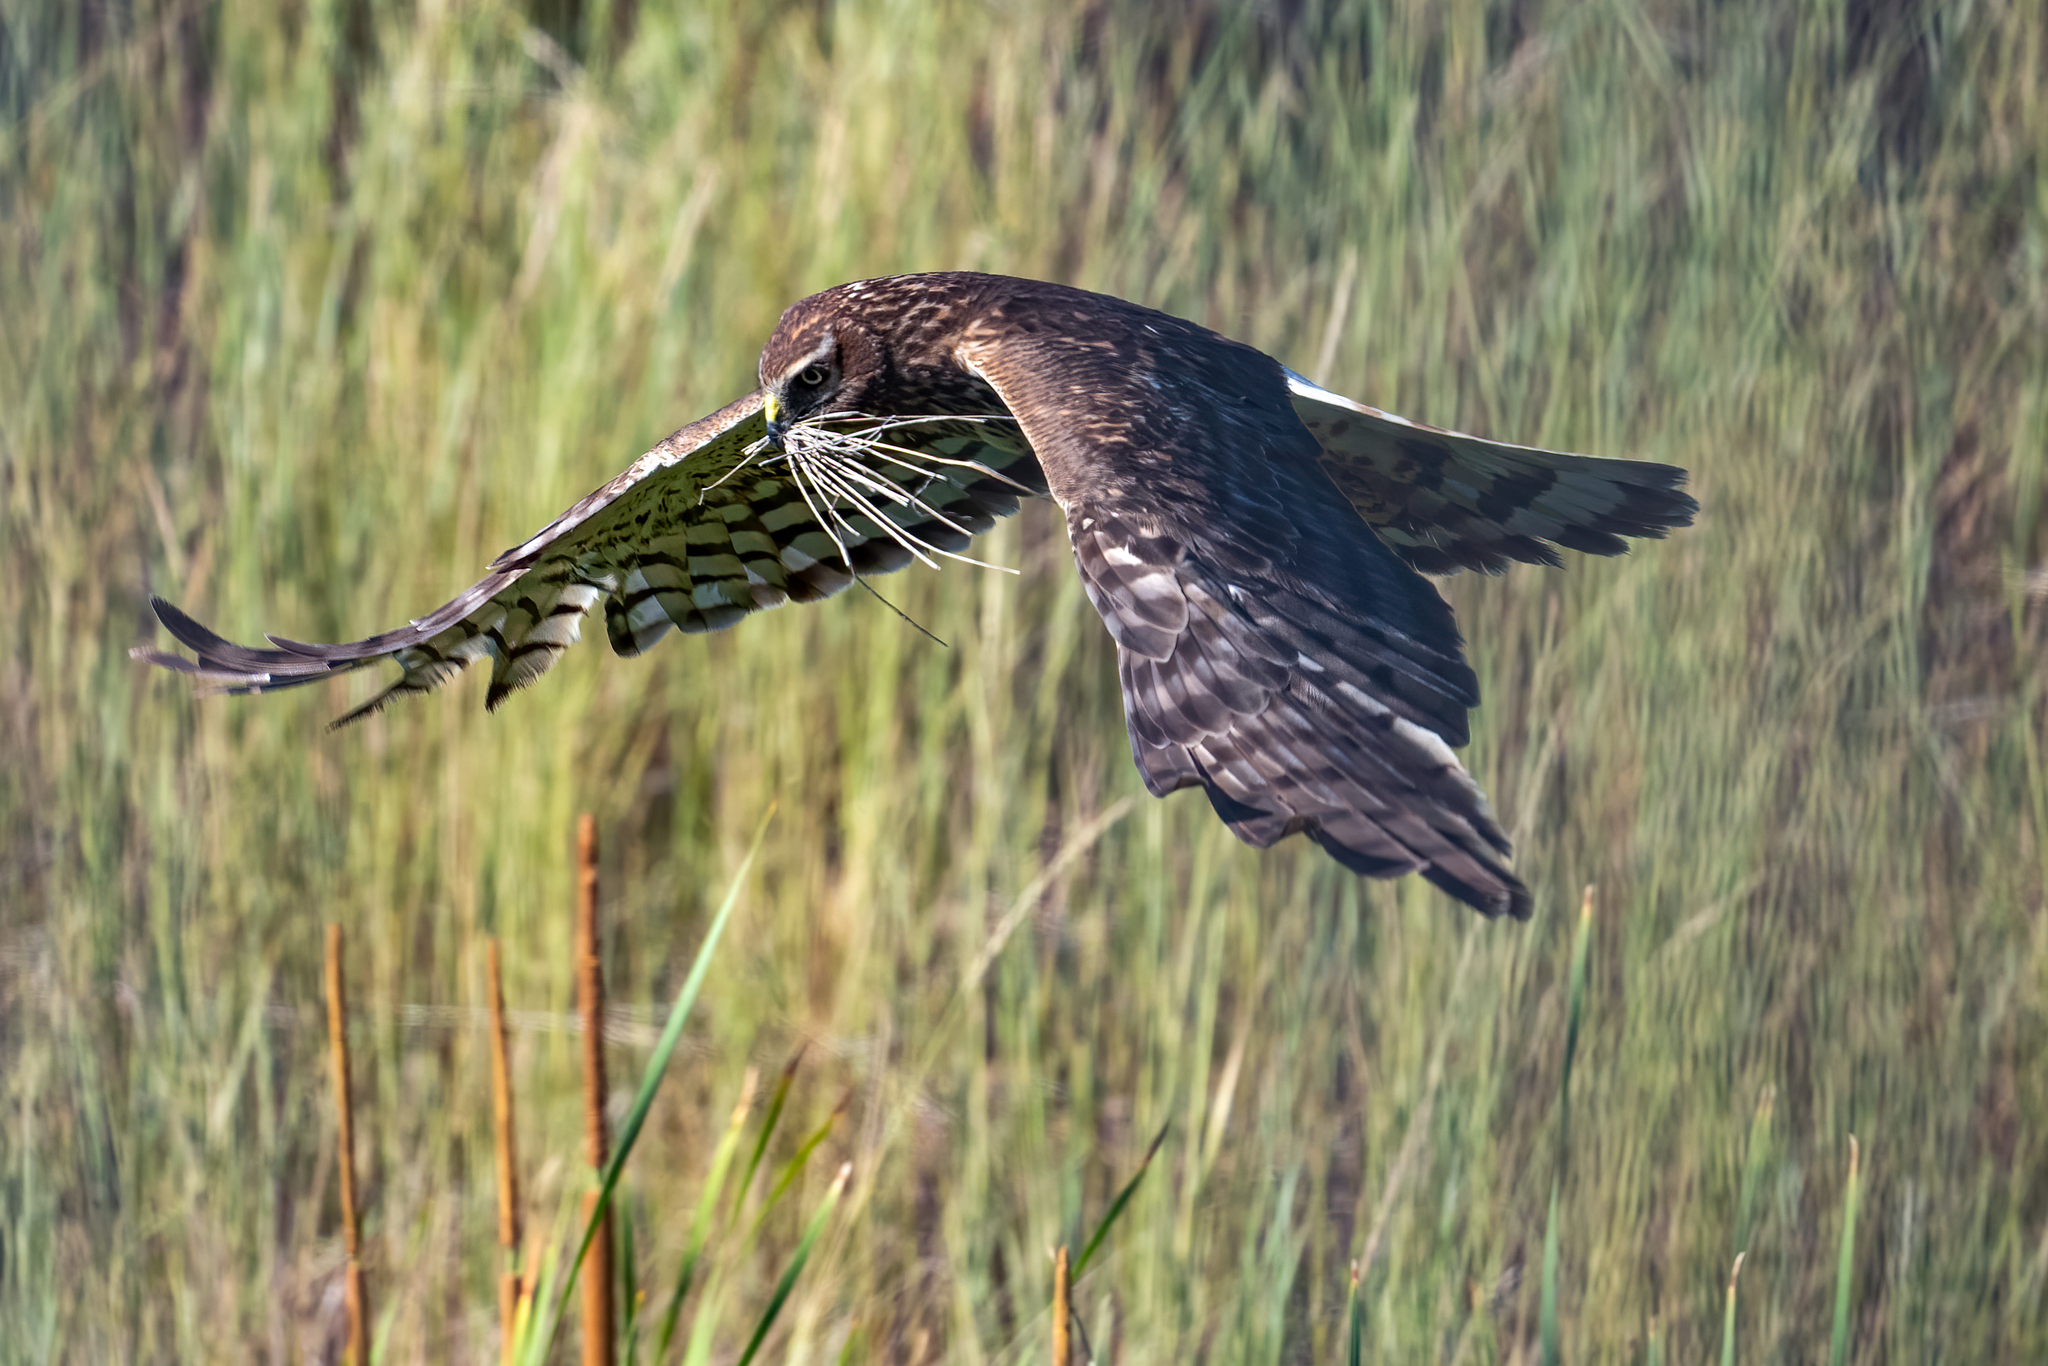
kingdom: Animalia
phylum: Chordata
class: Aves
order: Accipitriformes
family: Accipitridae
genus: Circus
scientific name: Circus cyaneus
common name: Hen harrier
